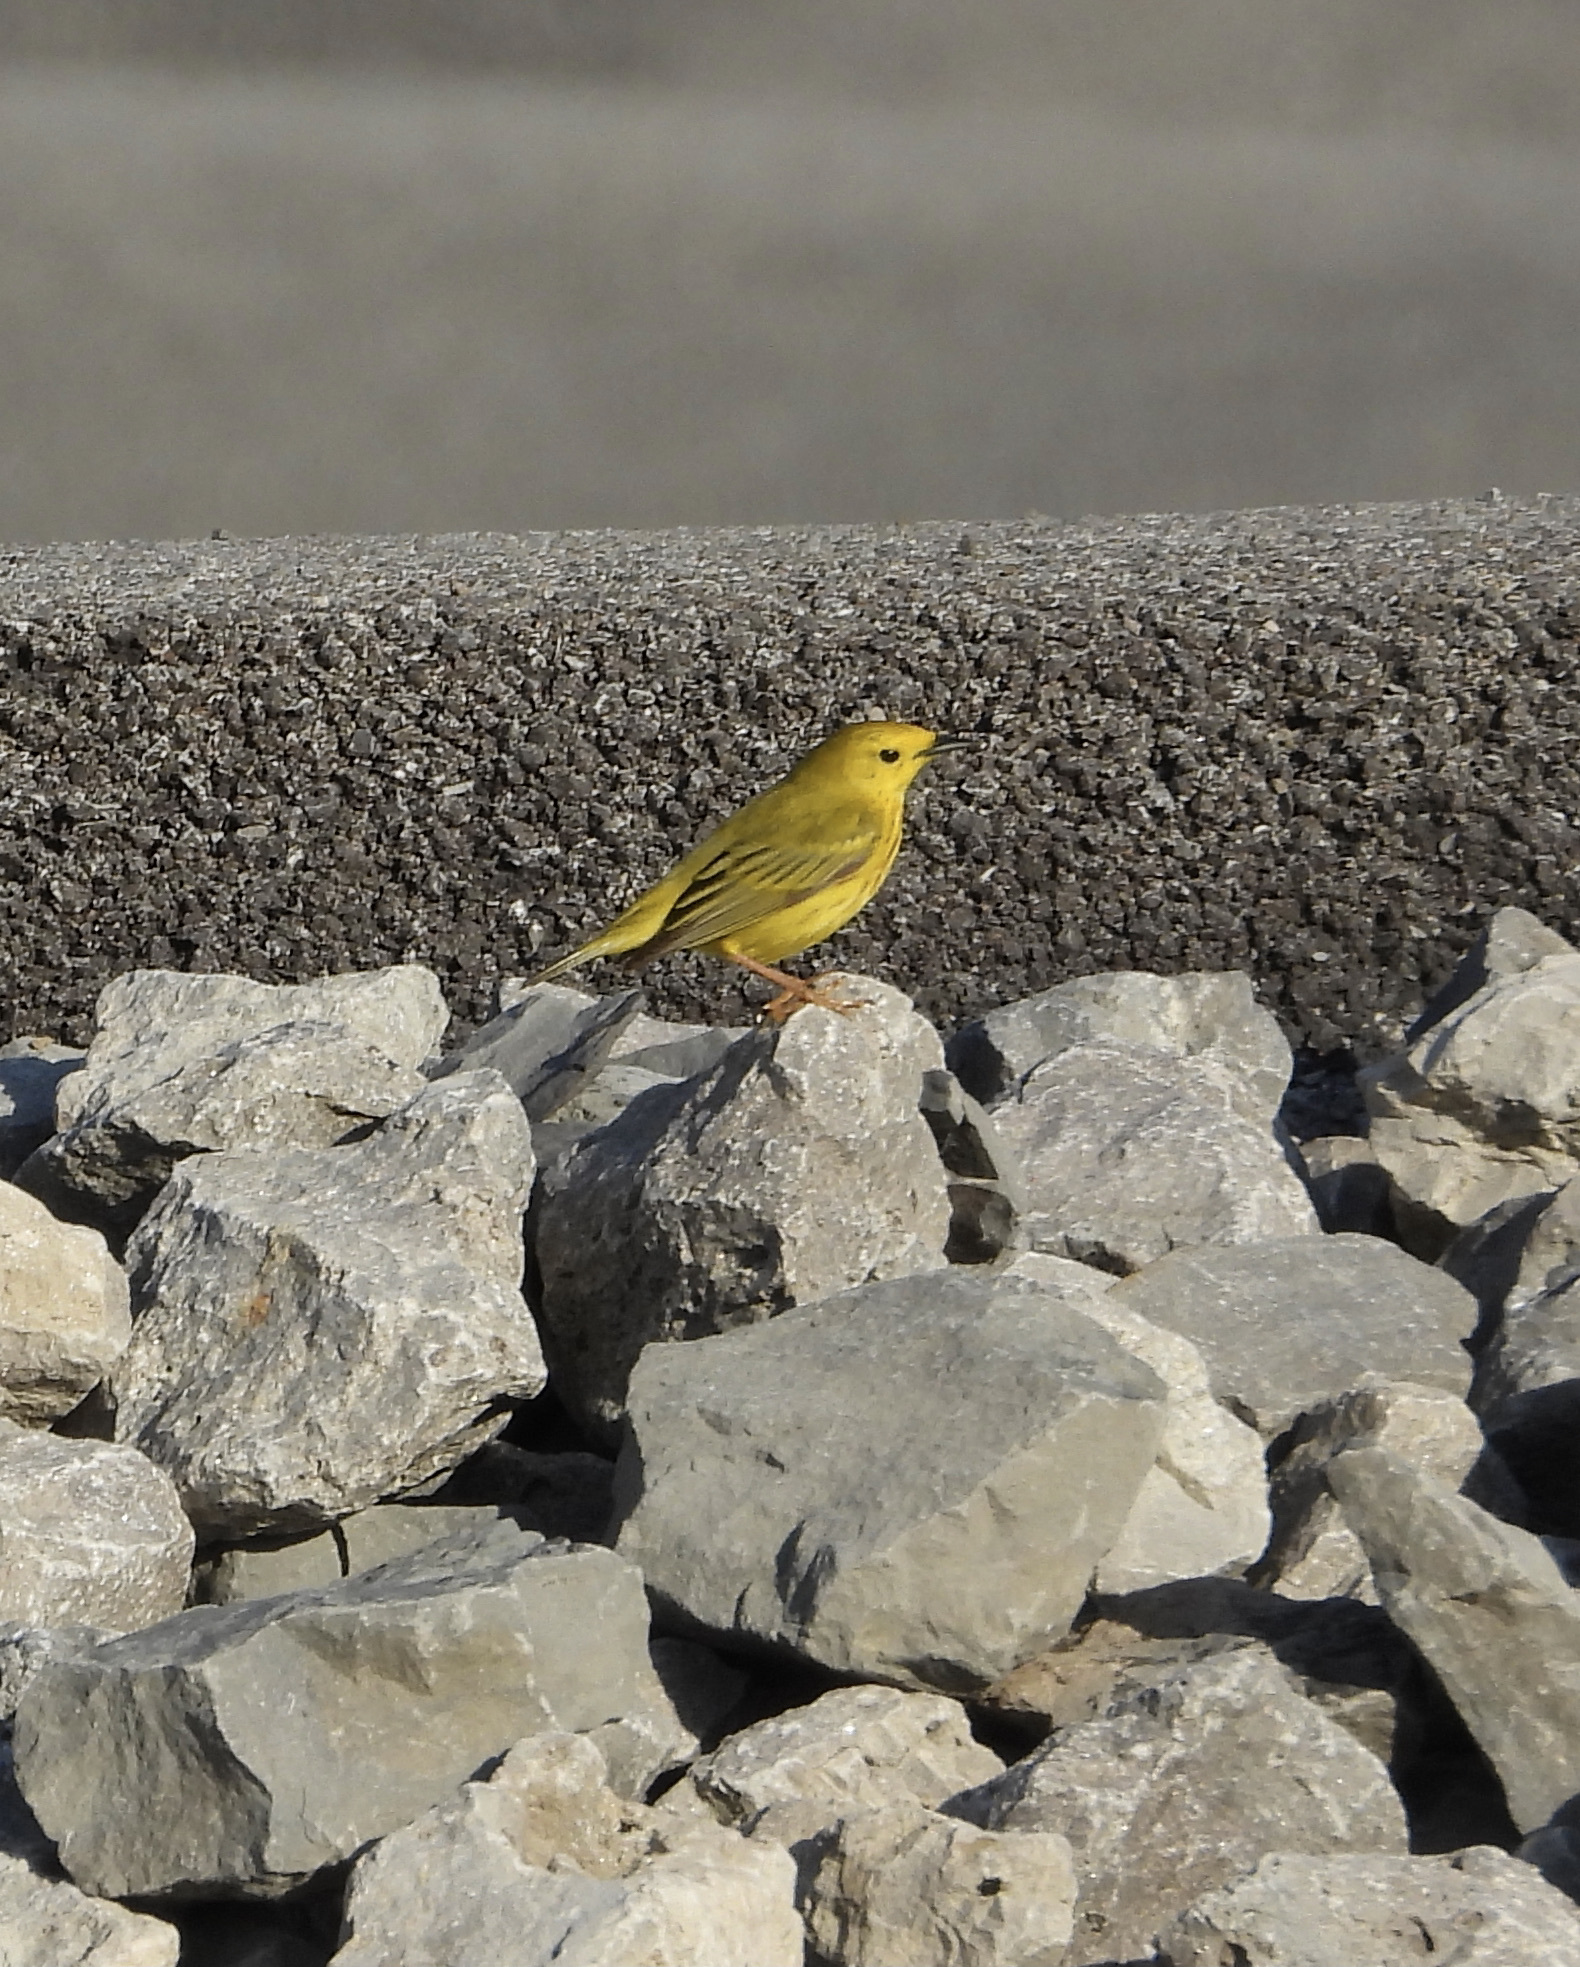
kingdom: Animalia
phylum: Chordata
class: Aves
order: Passeriformes
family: Parulidae
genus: Setophaga
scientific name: Setophaga petechia
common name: Yellow warbler
